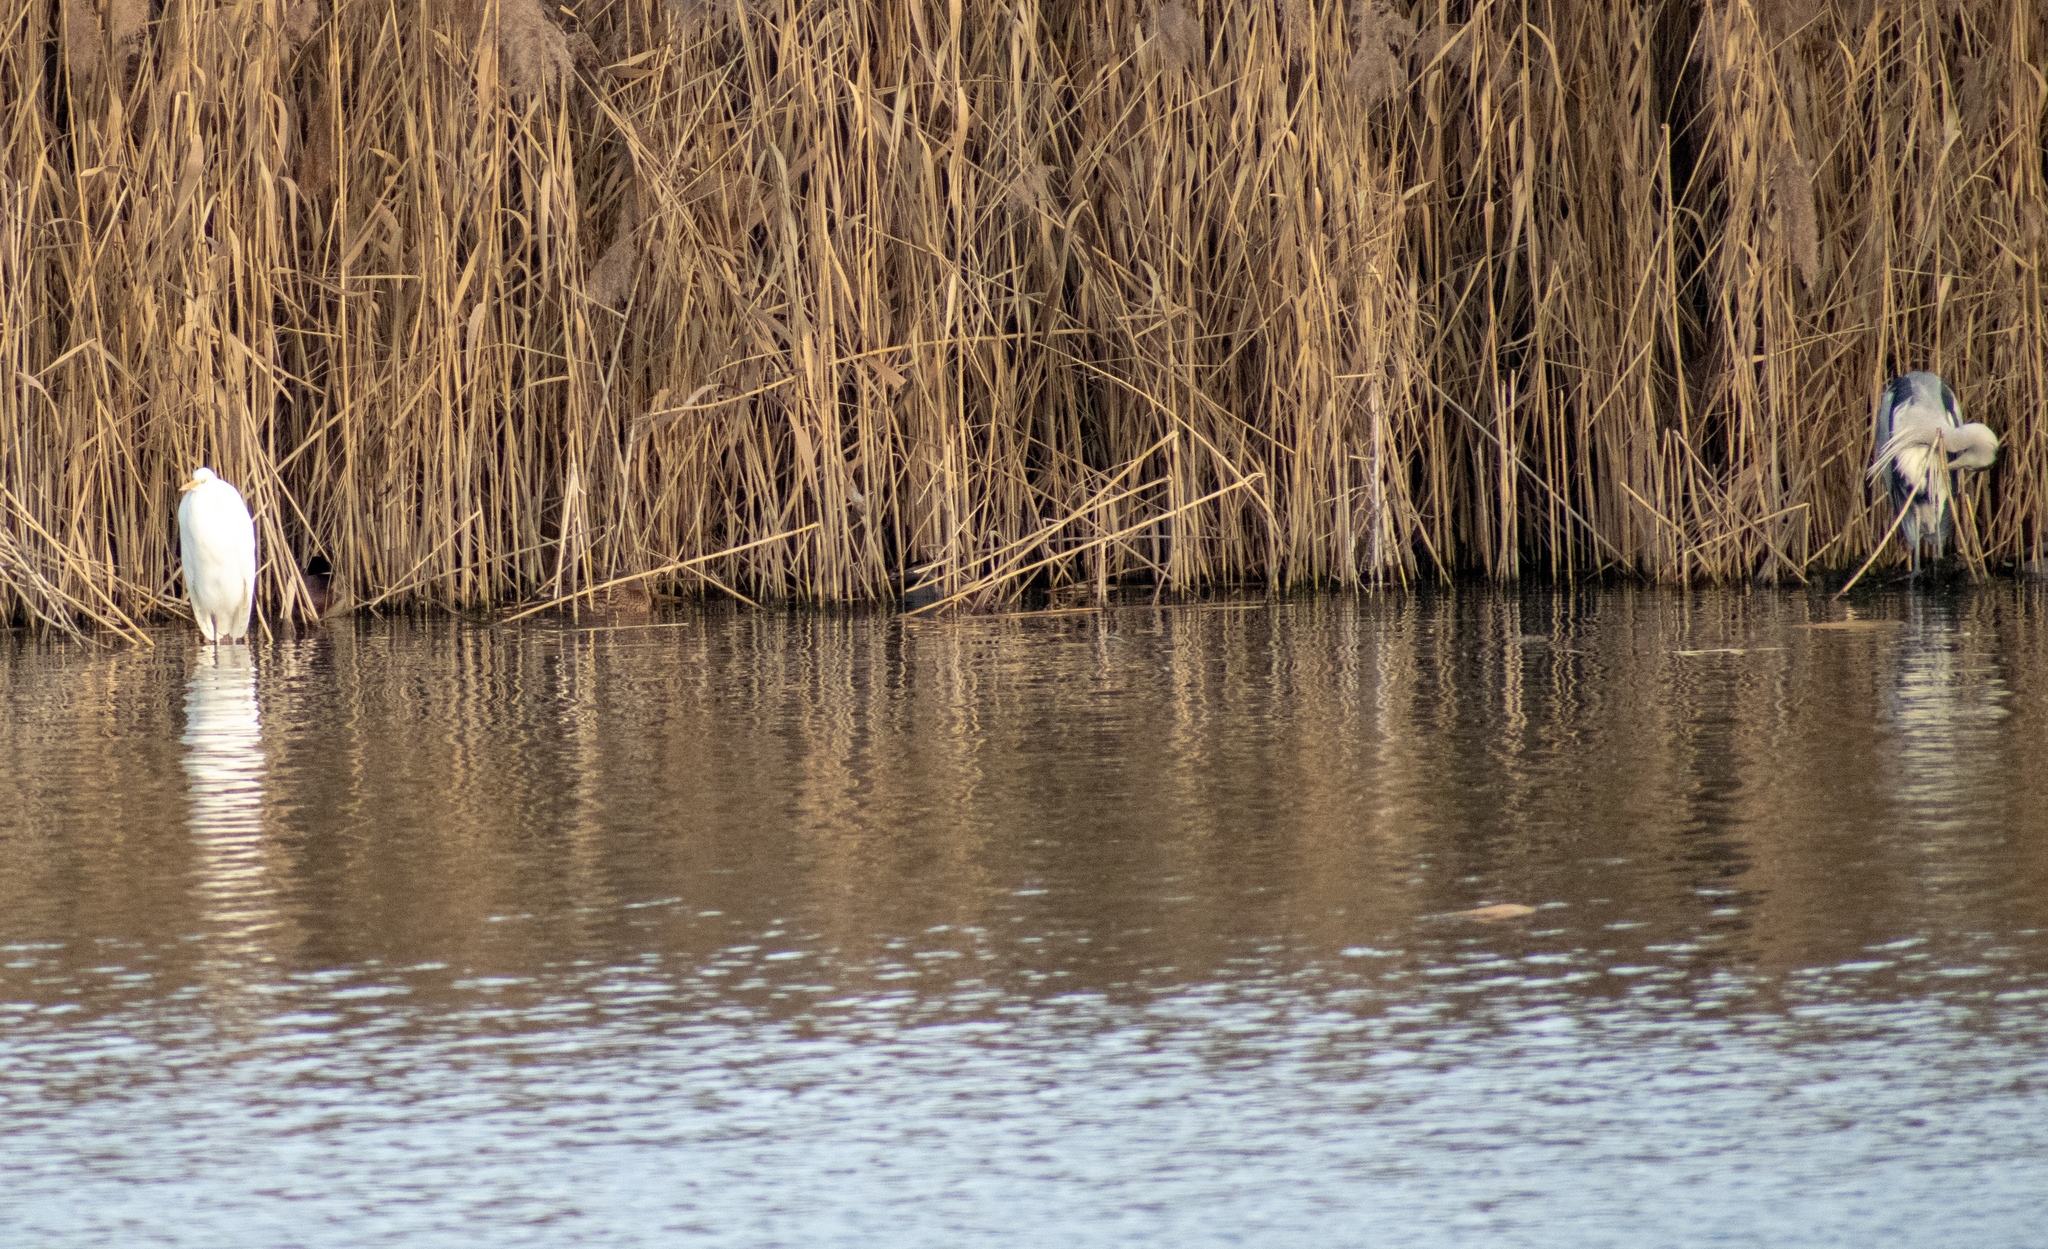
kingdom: Animalia
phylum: Chordata
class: Aves
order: Pelecaniformes
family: Ardeidae
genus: Ardea
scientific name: Ardea cinerea
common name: Grey heron
